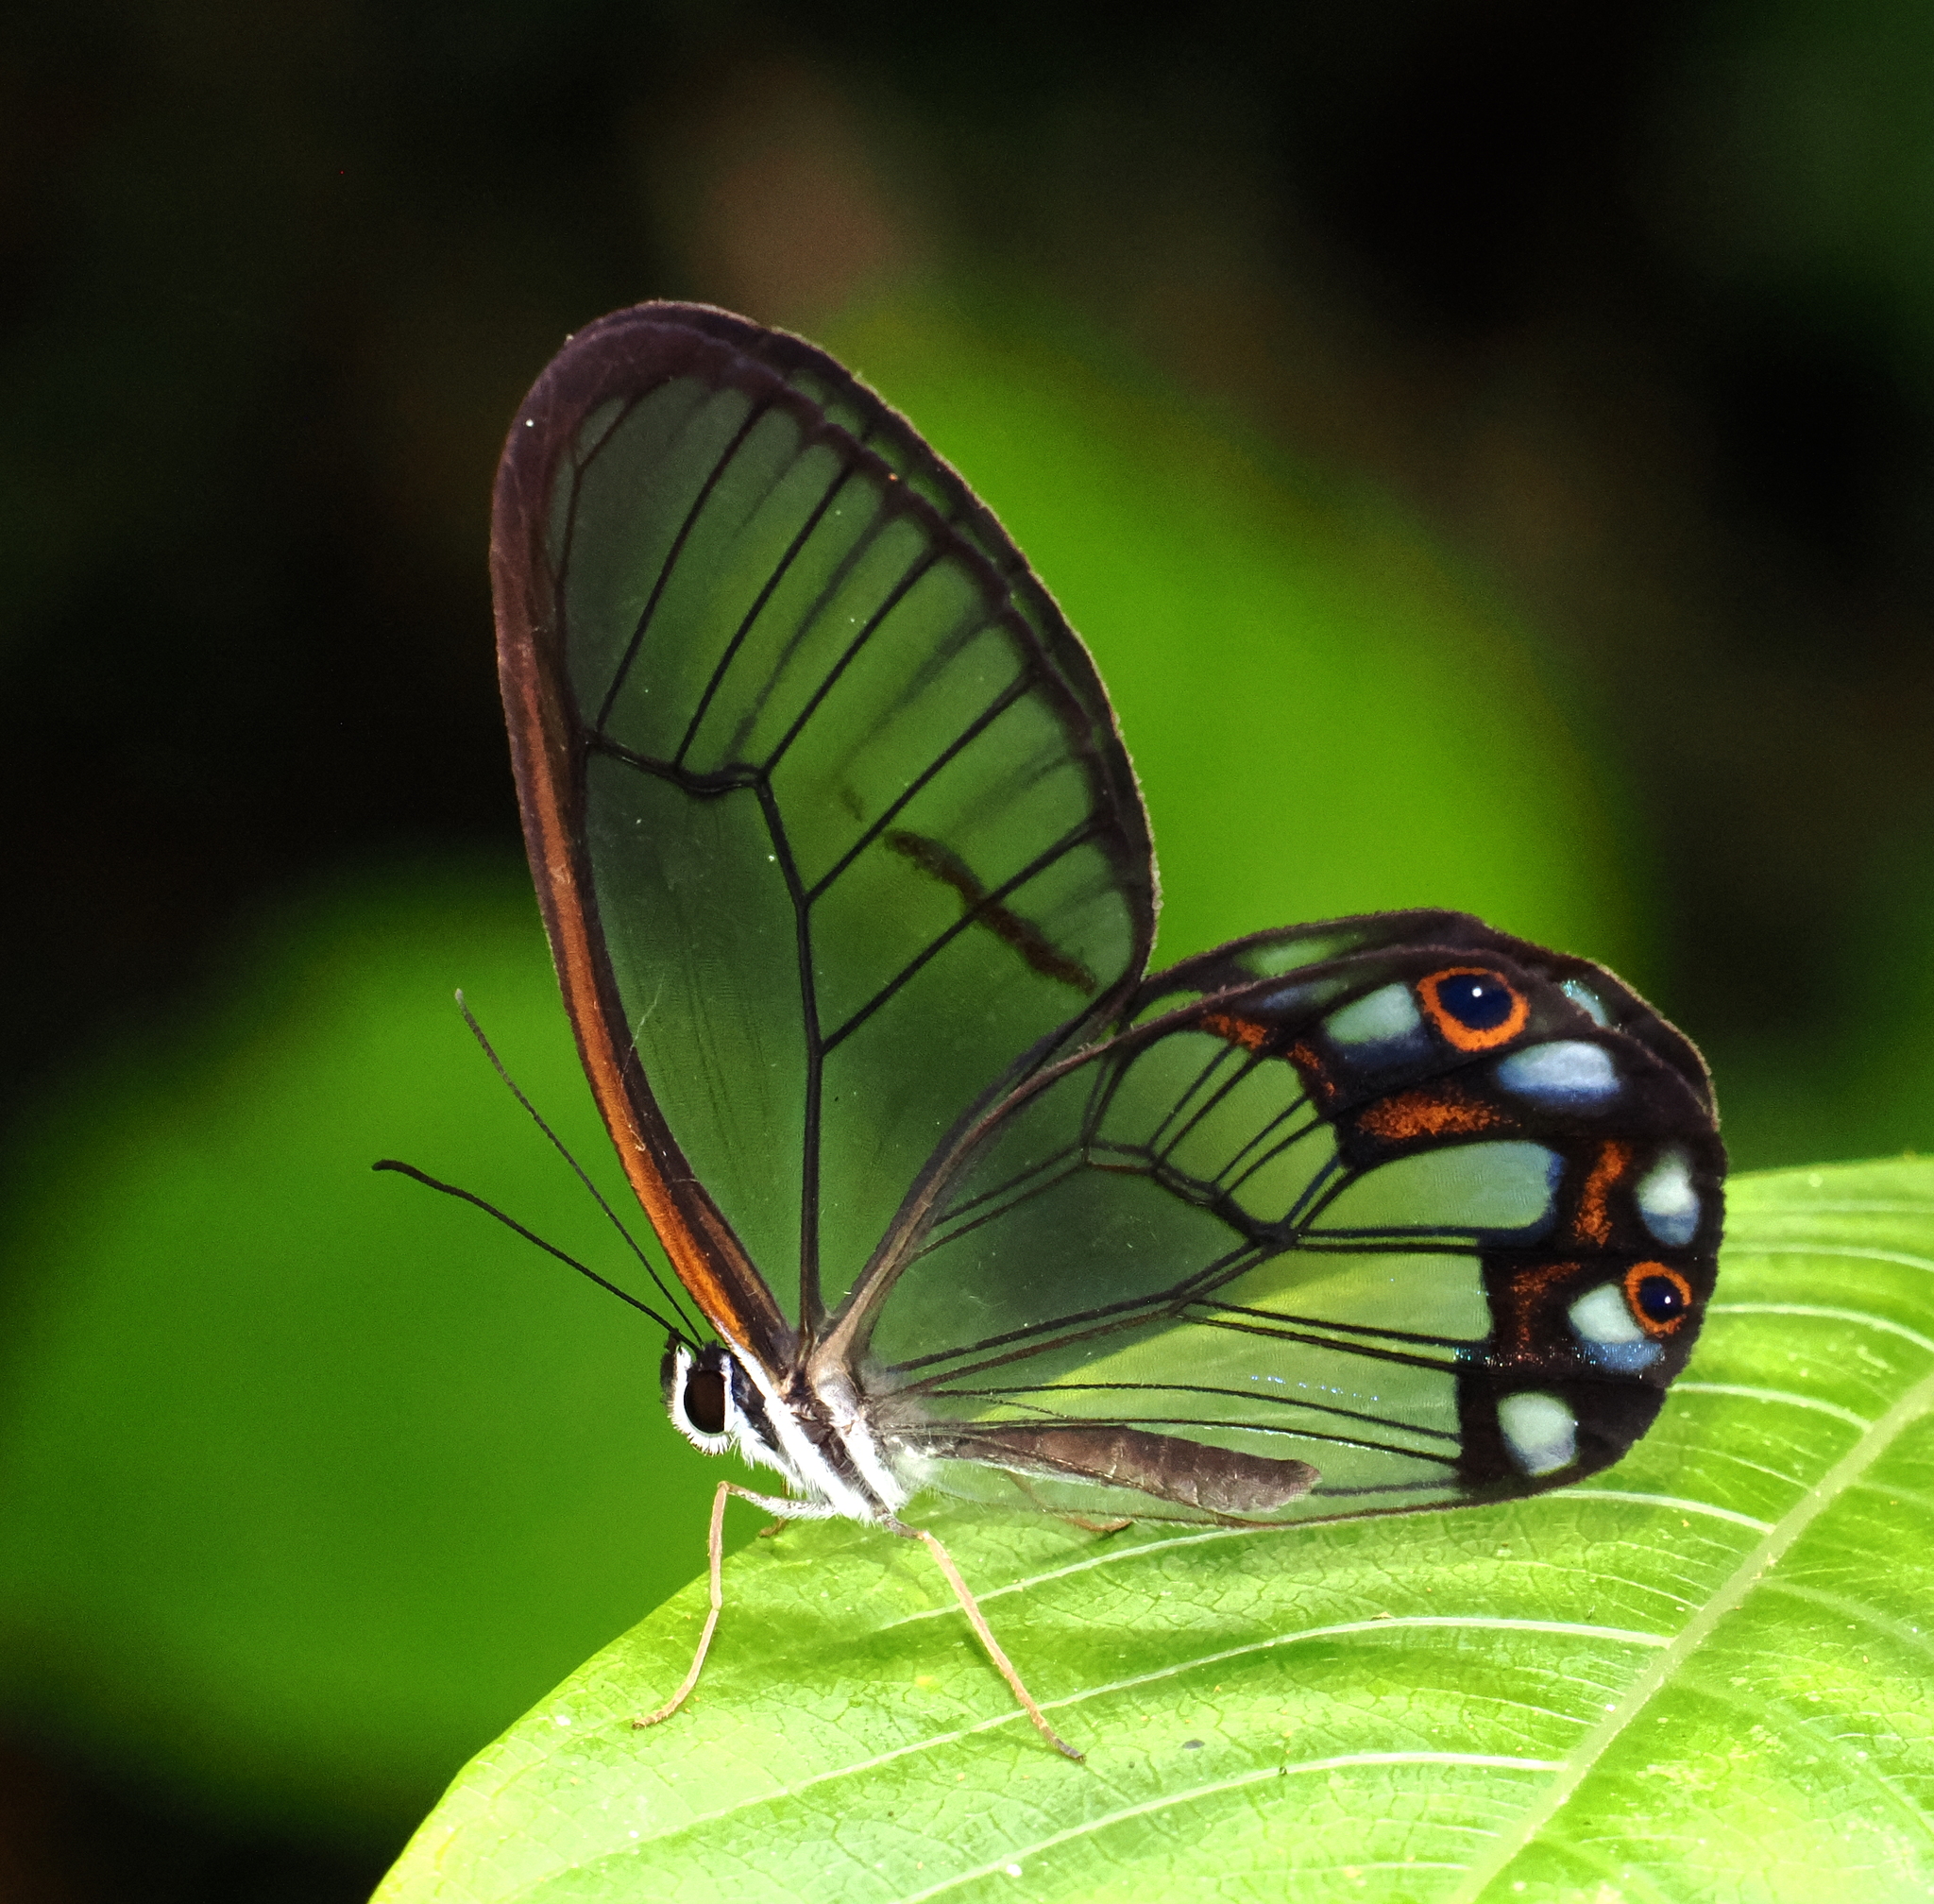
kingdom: Animalia
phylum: Arthropoda
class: Insecta
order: Lepidoptera
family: Nymphalidae
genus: Pseudohaetera
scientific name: Pseudohaetera hypaesia
